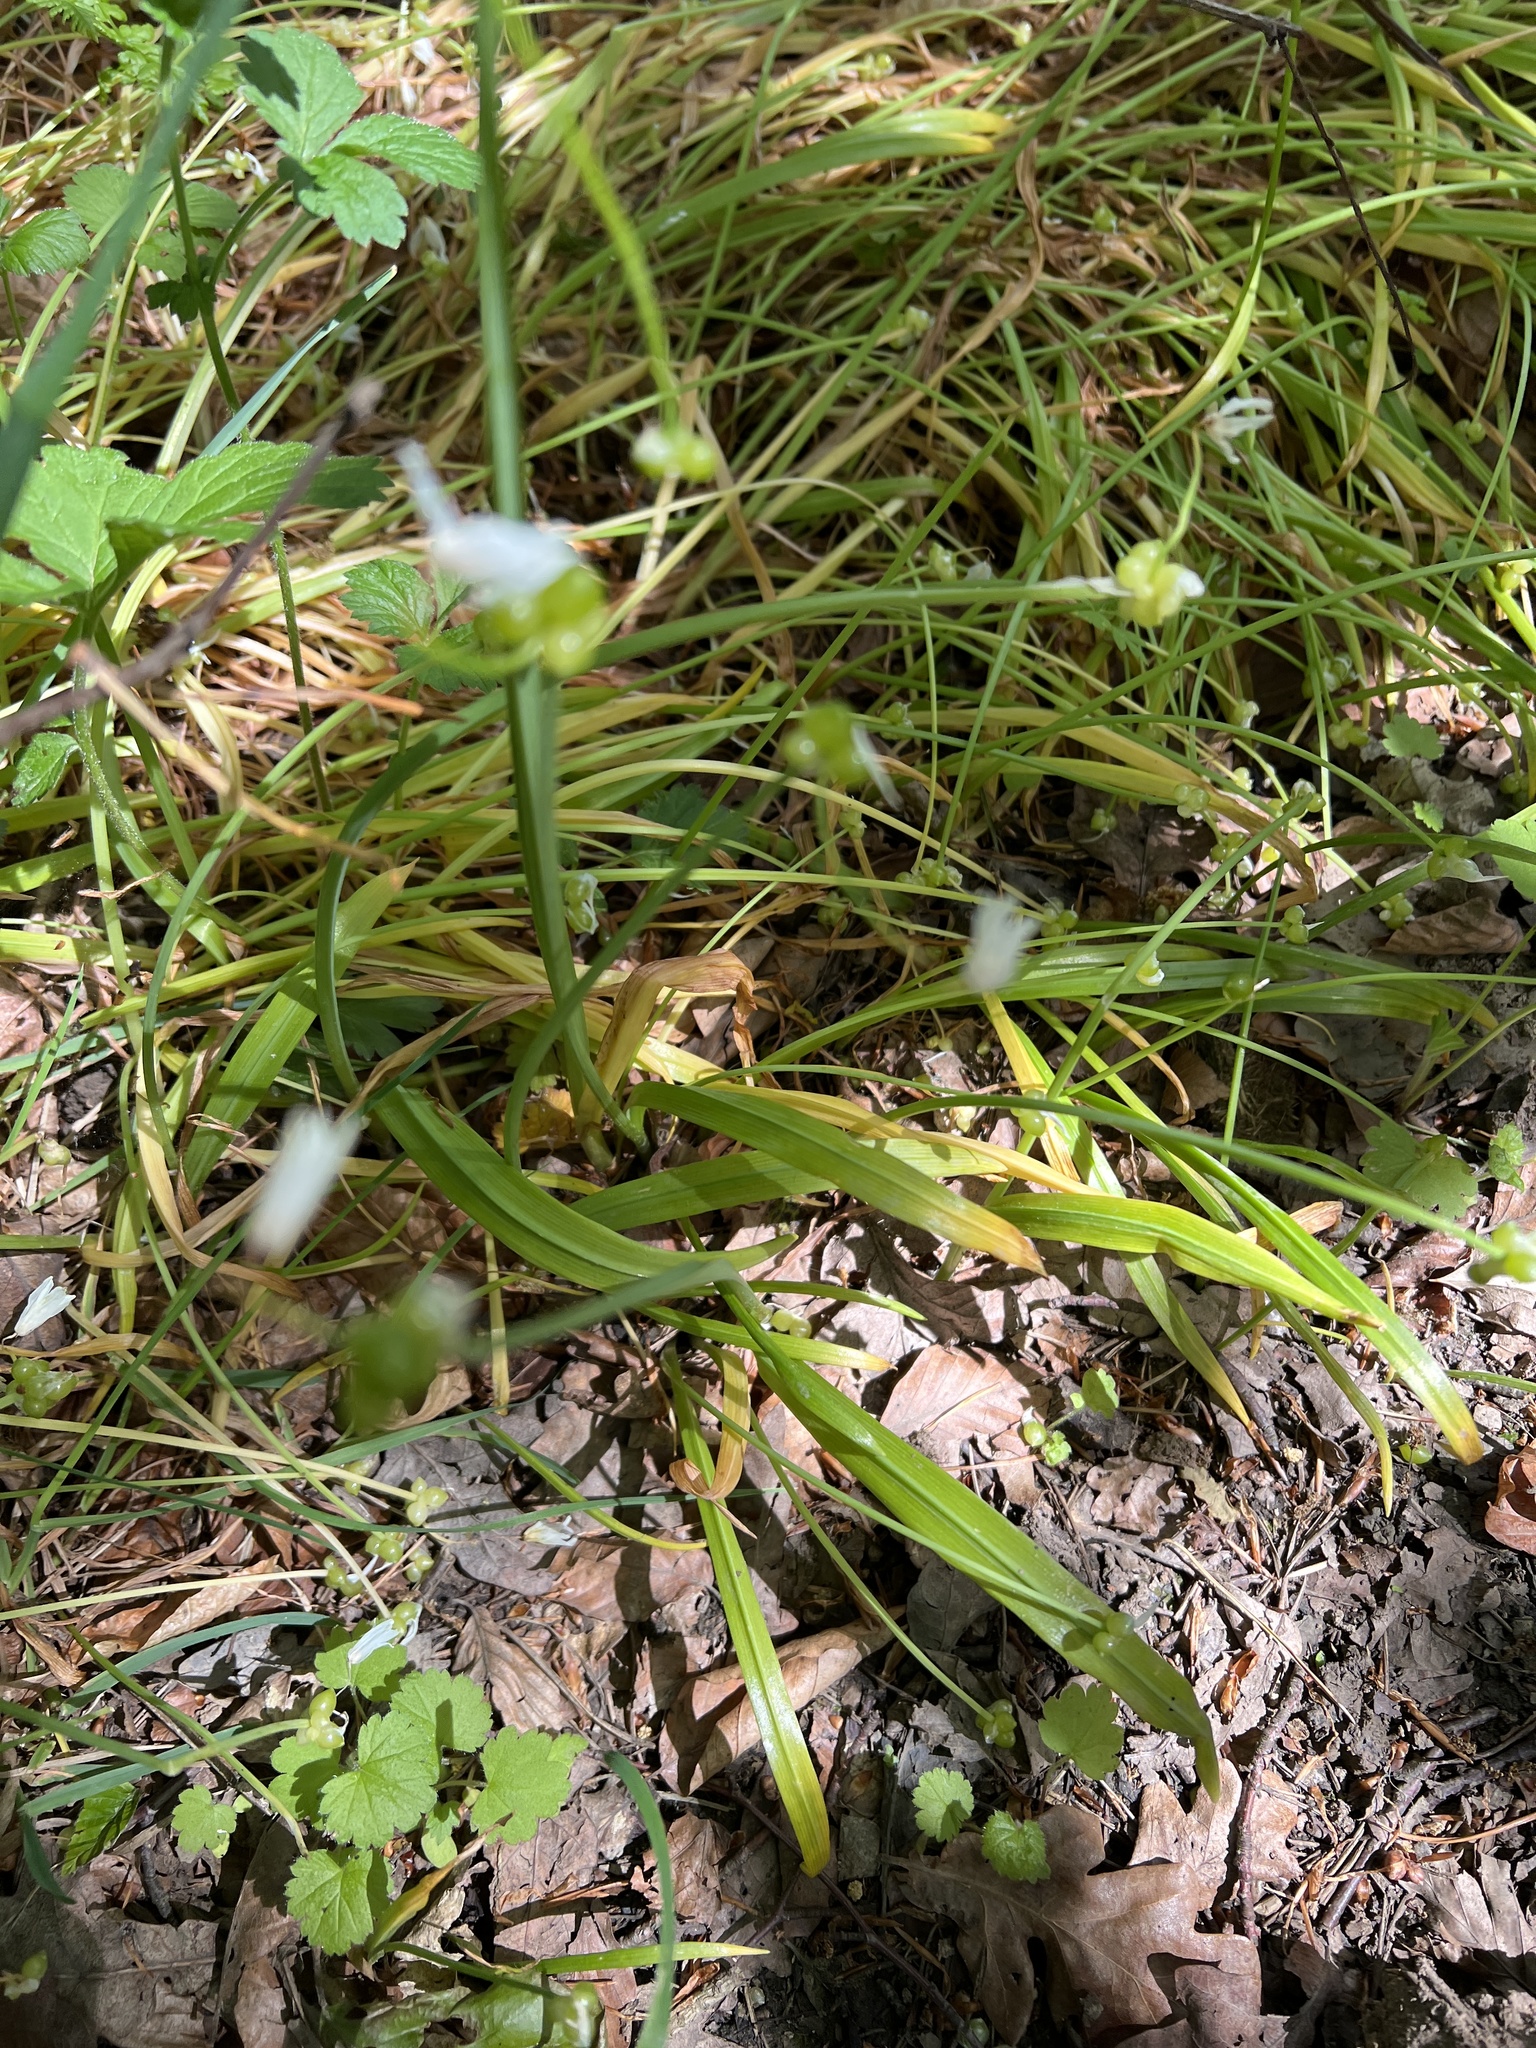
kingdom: Plantae
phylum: Tracheophyta
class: Liliopsida
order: Asparagales
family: Amaryllidaceae
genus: Allium
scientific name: Allium paradoxum
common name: Few-flowered garlic
